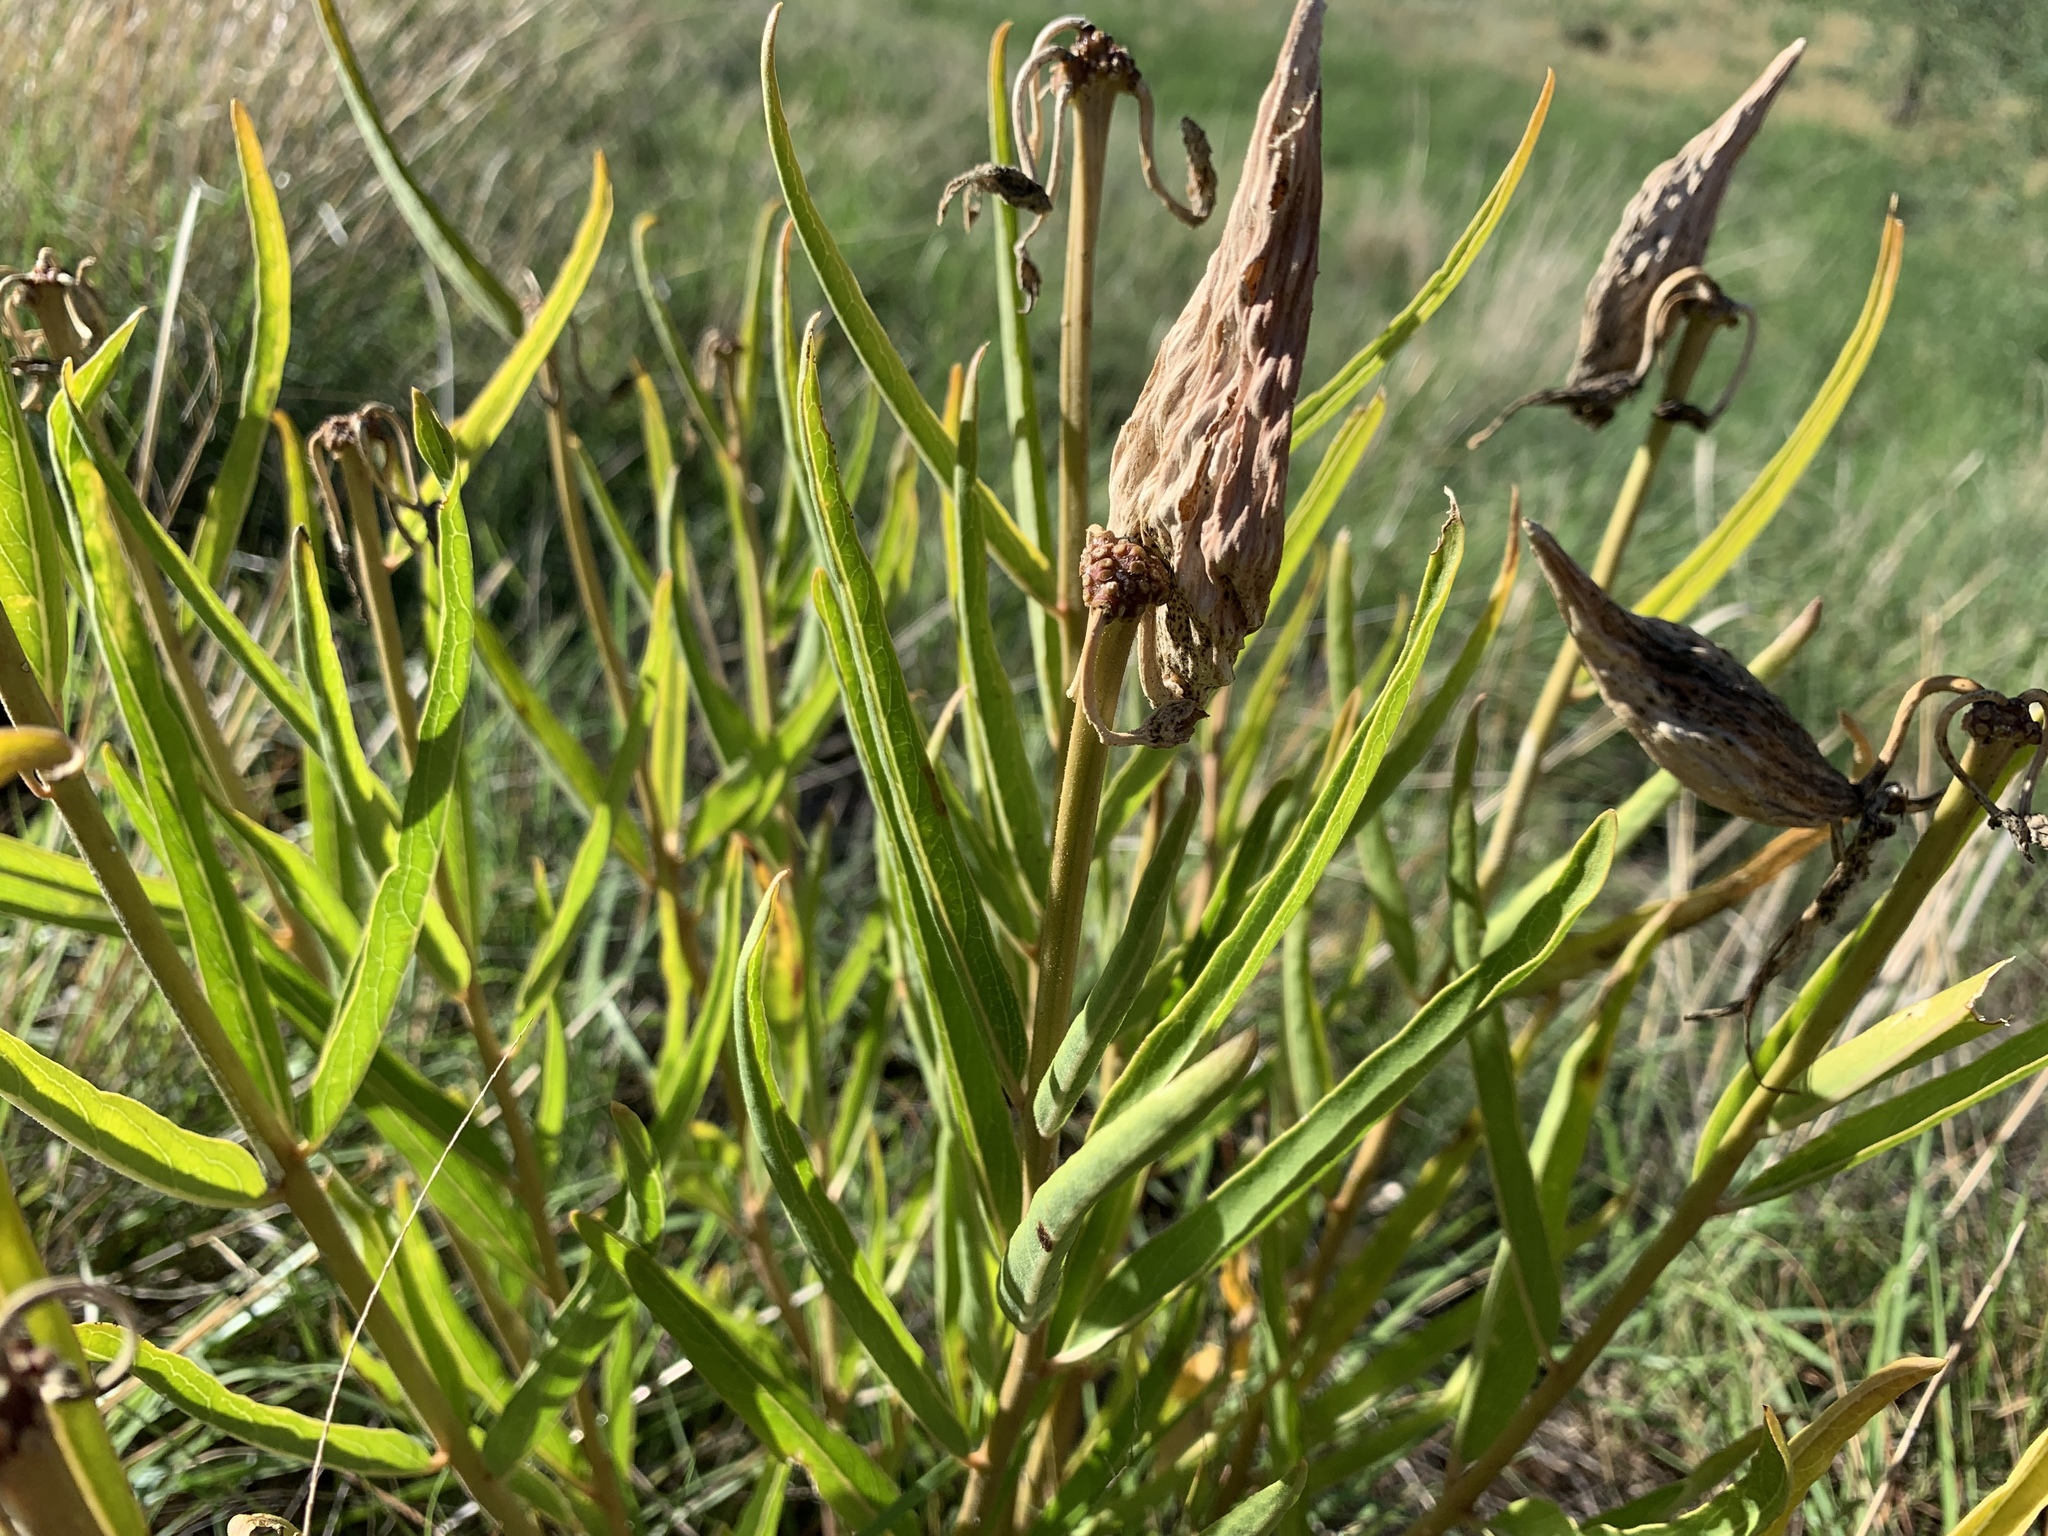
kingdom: Plantae
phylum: Tracheophyta
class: Magnoliopsida
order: Gentianales
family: Apocynaceae
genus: Asclepias
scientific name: Asclepias asperula
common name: Antelope horns
